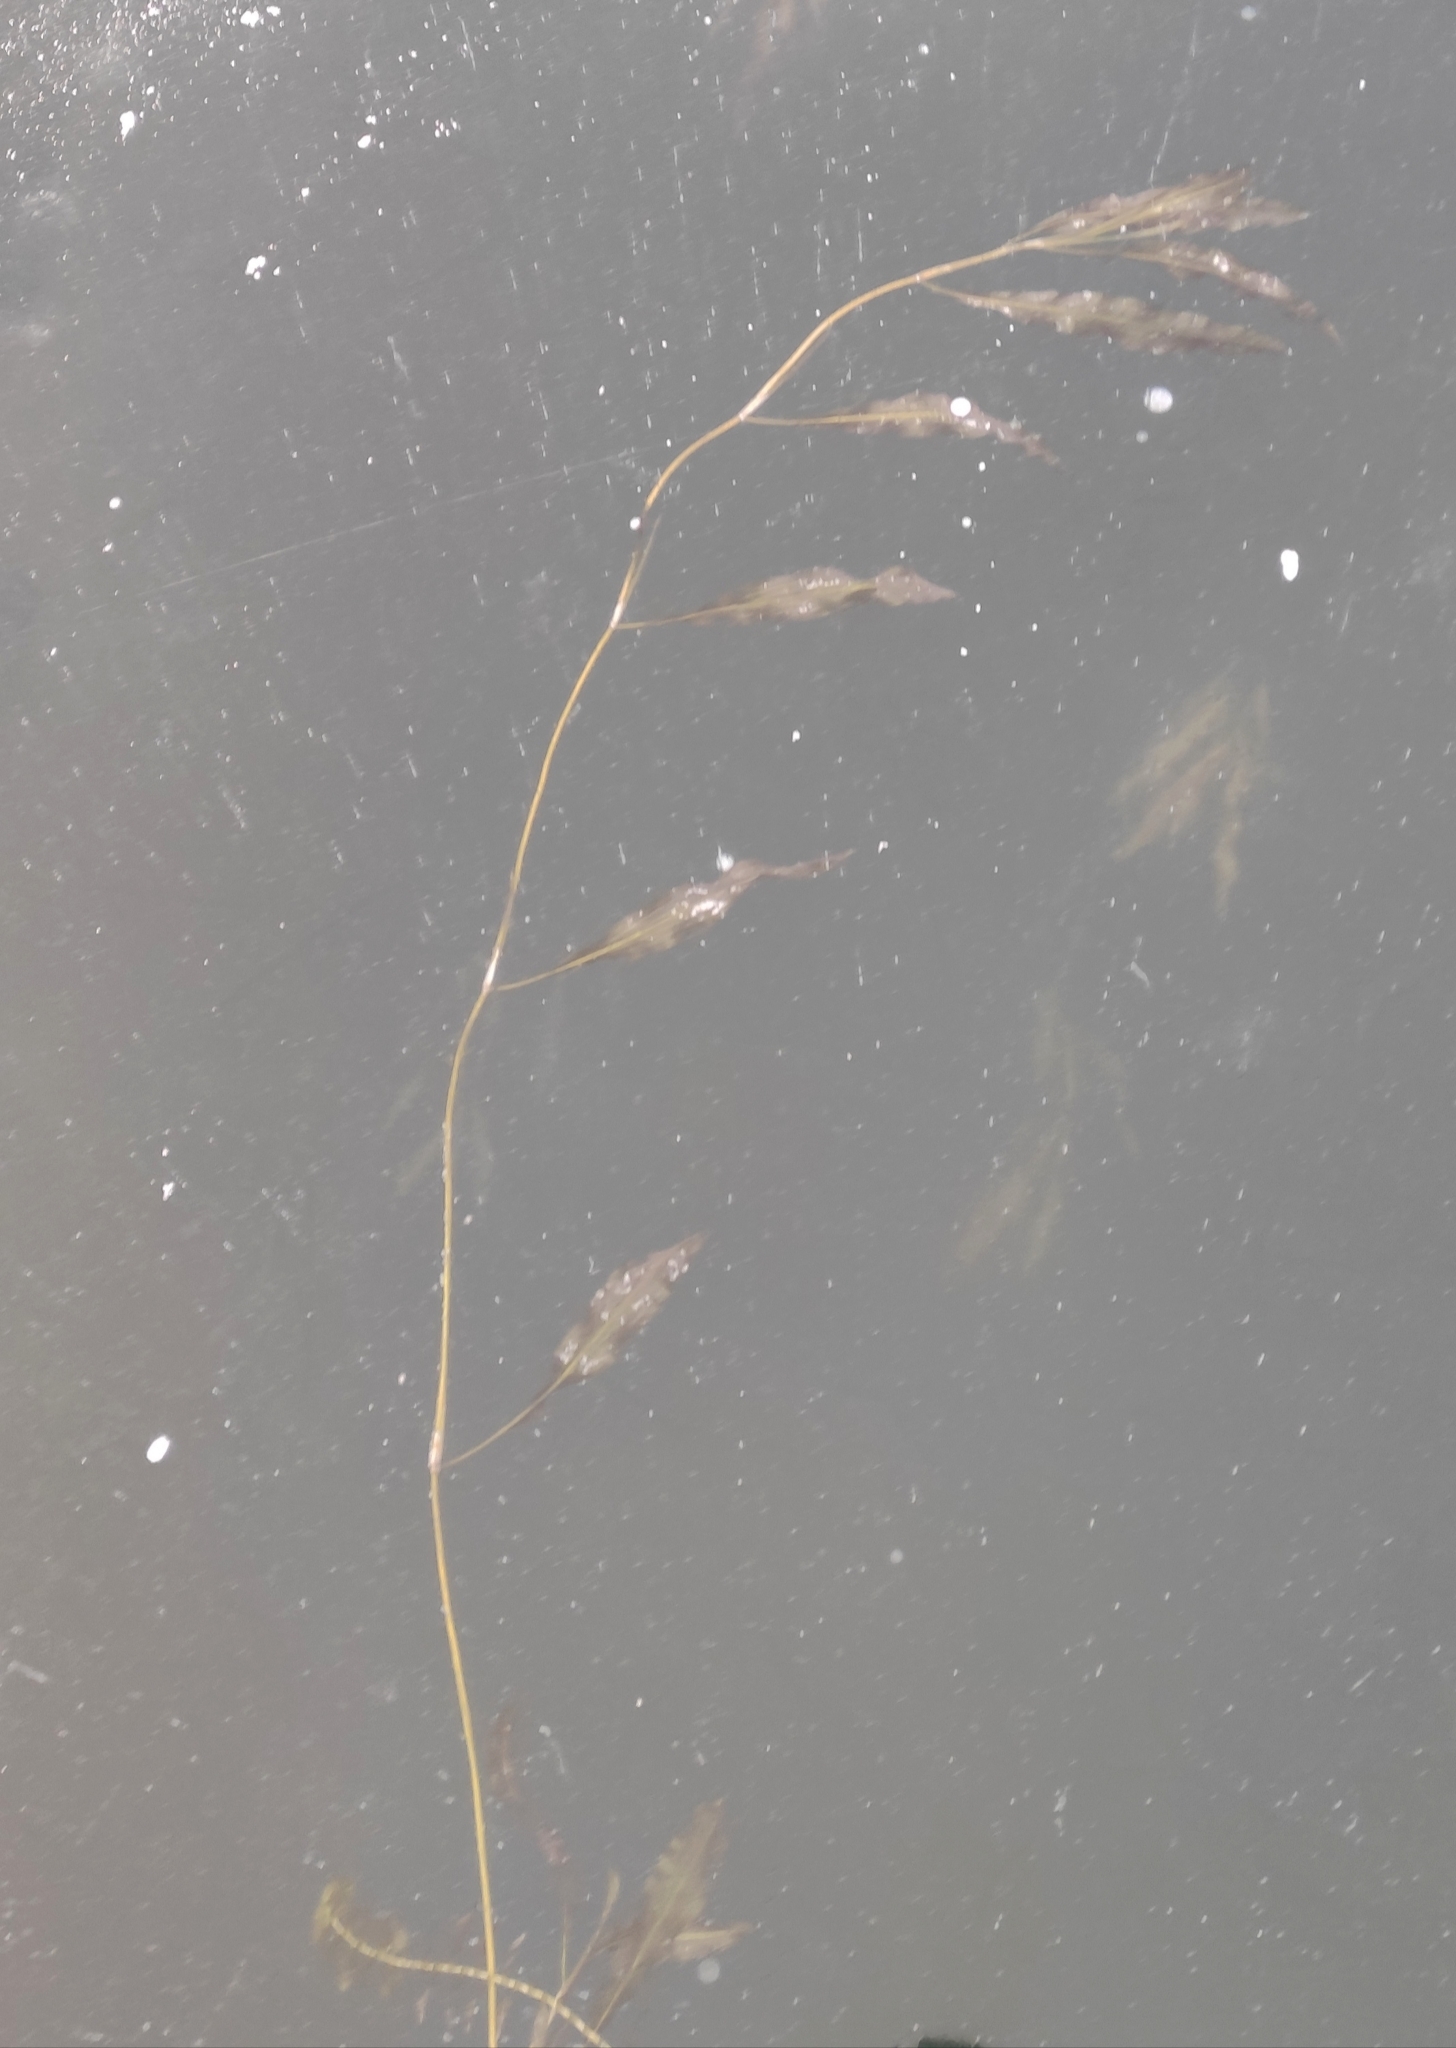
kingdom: Plantae
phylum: Tracheophyta
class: Liliopsida
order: Alismatales
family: Potamogetonaceae
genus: Potamogeton
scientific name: Potamogeton lucens
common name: Shining pondweed
